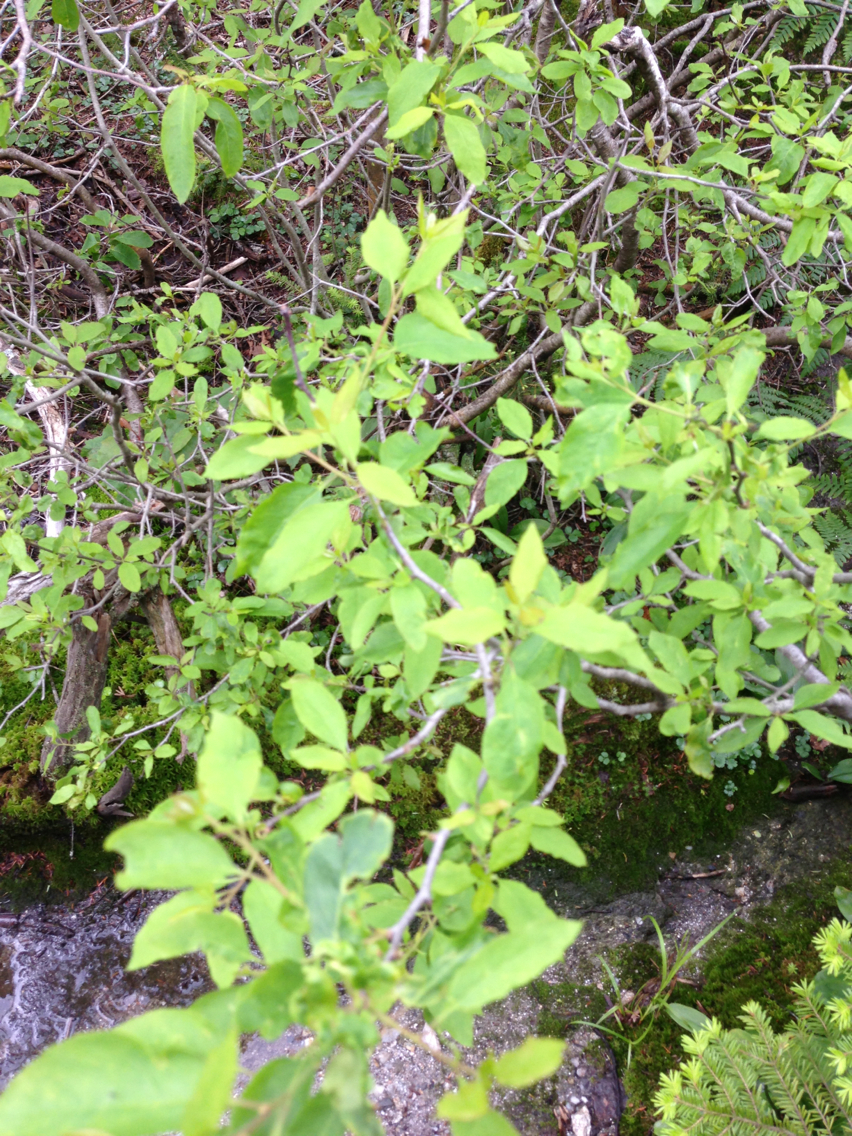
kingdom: Plantae
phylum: Tracheophyta
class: Magnoliopsida
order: Aquifoliales
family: Aquifoliaceae
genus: Ilex
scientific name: Ilex mucronata
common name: Catberry
